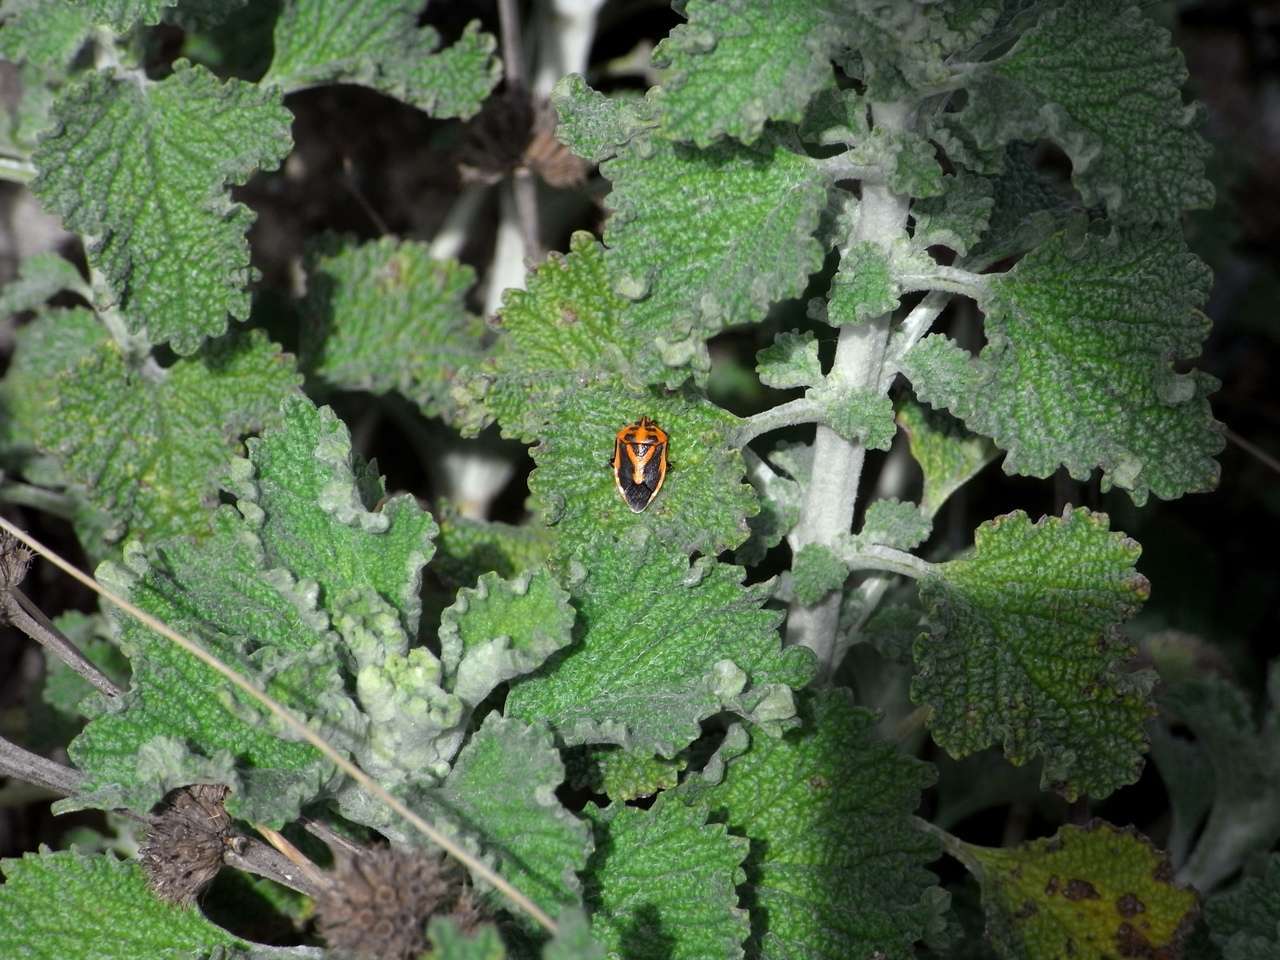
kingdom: Plantae
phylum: Tracheophyta
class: Magnoliopsida
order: Lamiales
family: Lamiaceae
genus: Marrubium
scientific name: Marrubium vulgare
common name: Horehound
